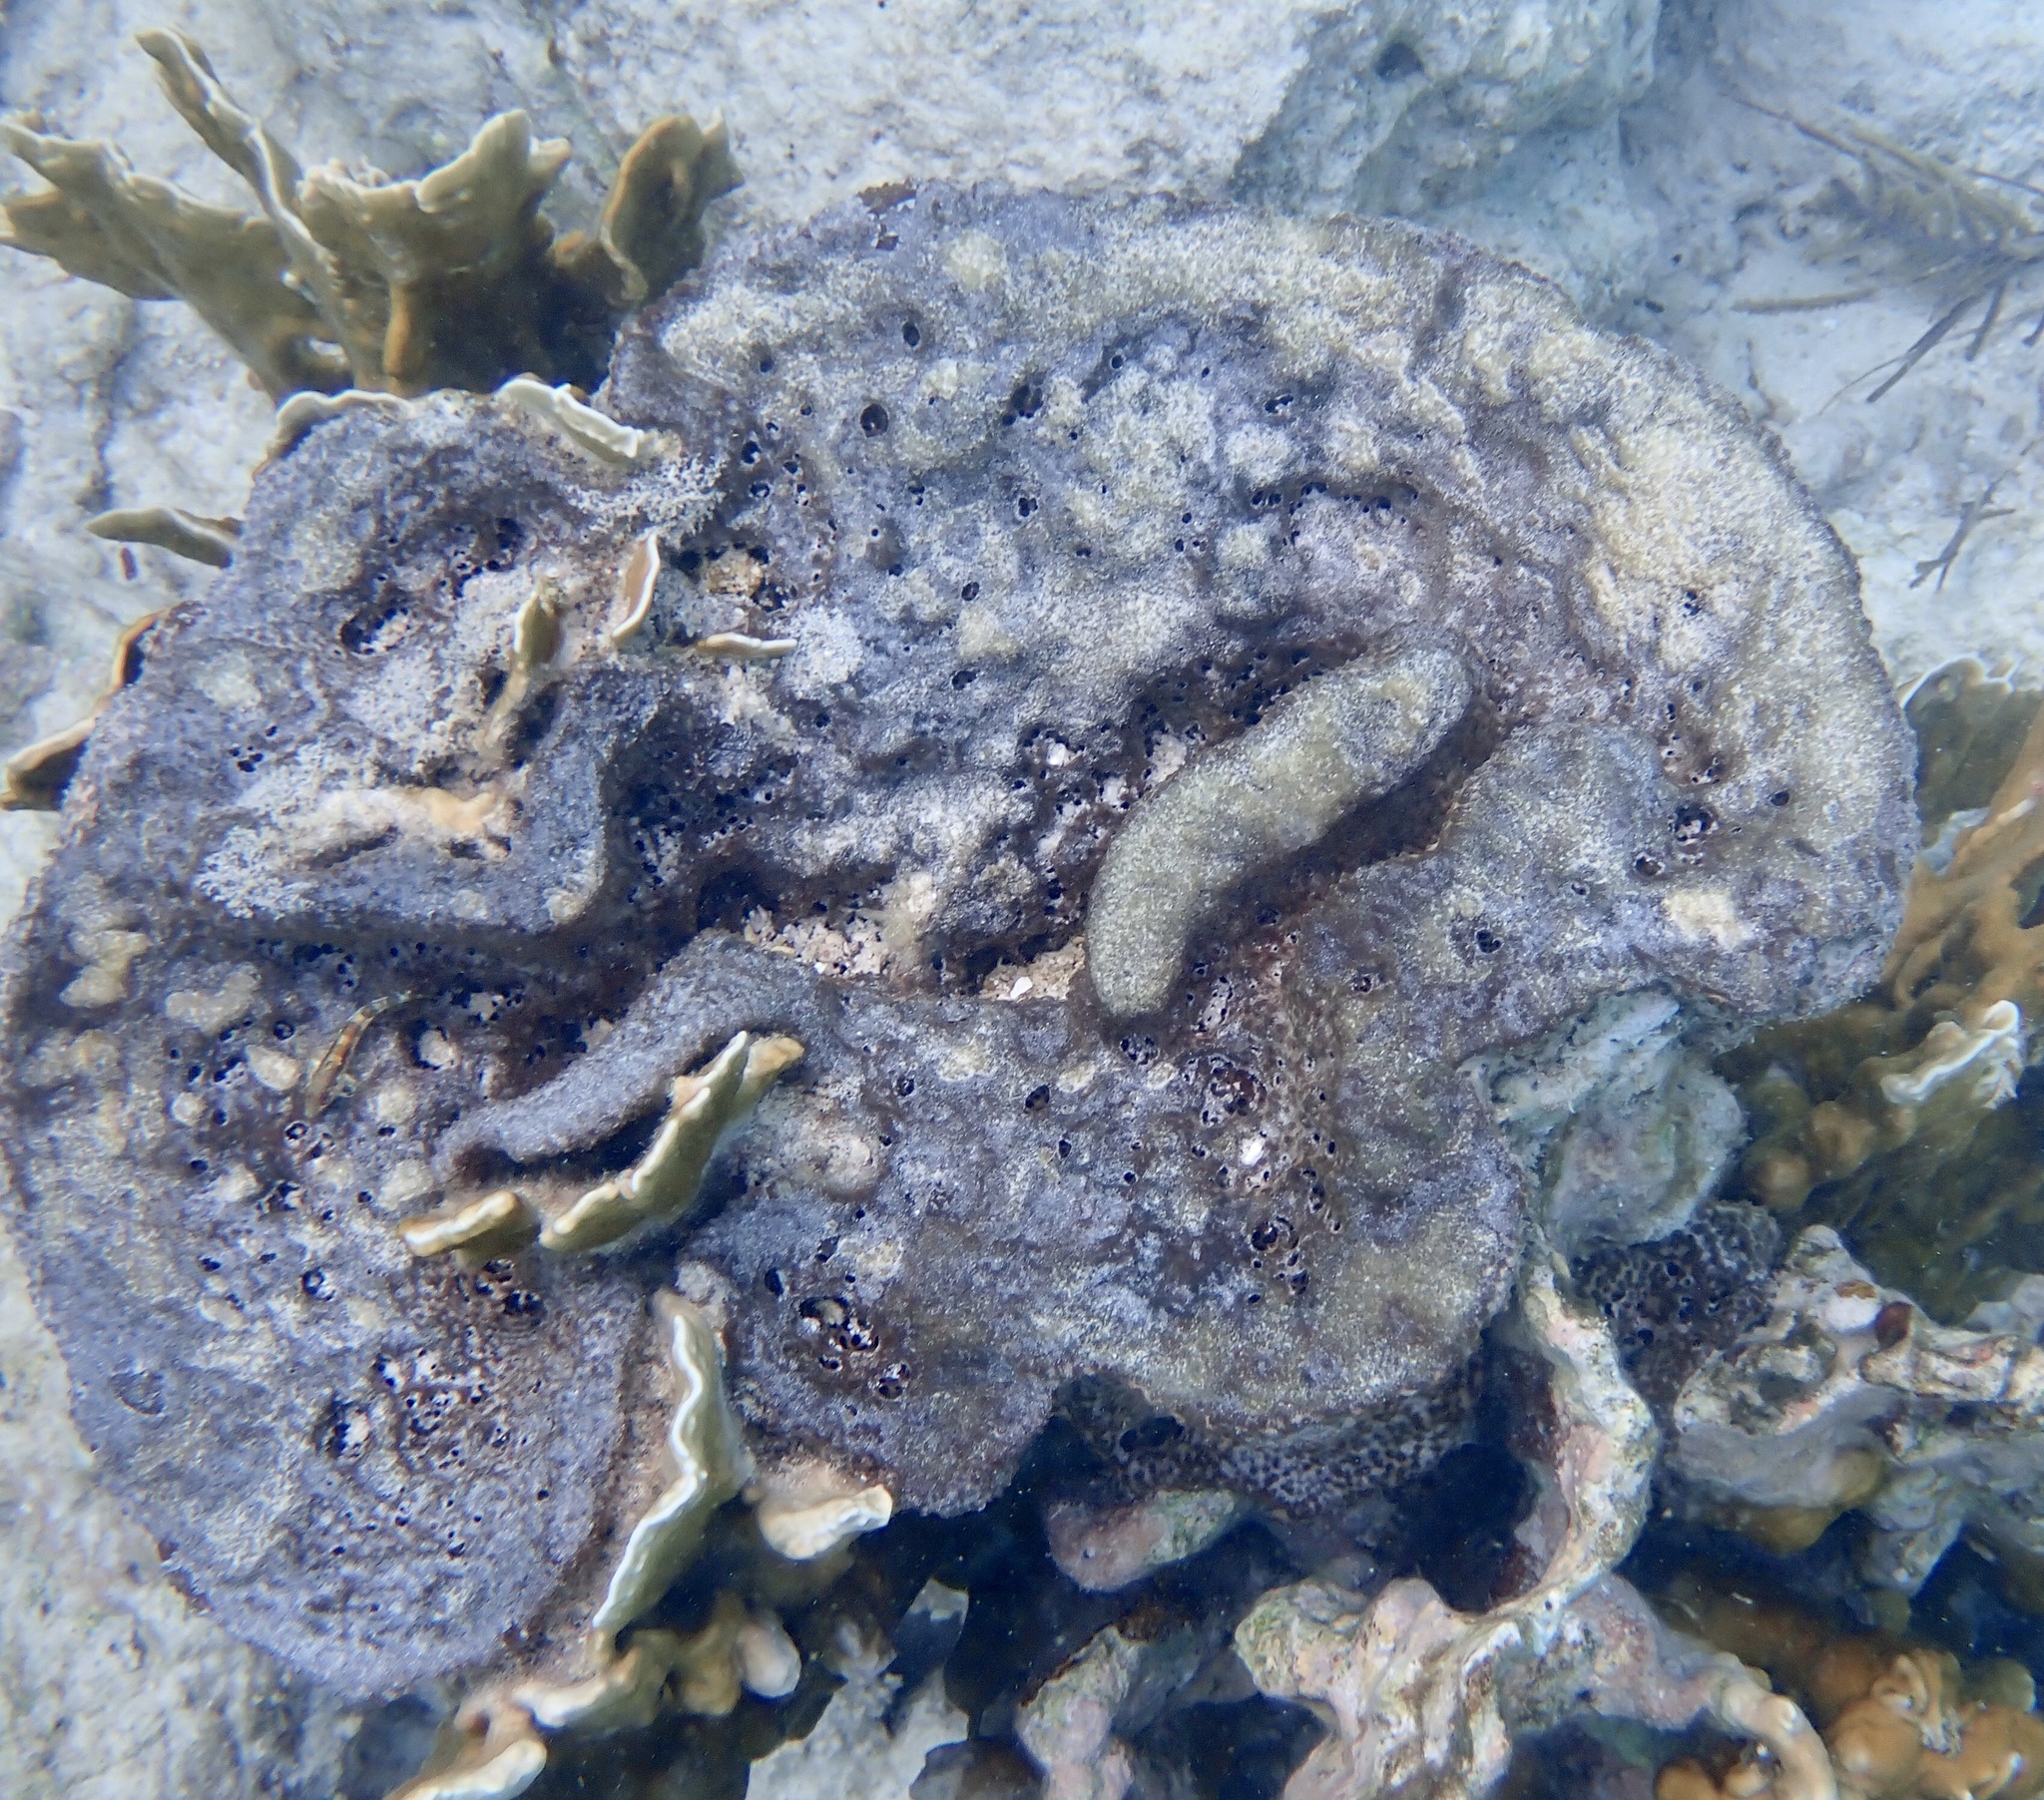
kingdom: Animalia
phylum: Porifera
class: Demospongiae
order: Dictyoceratida
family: Irciniidae
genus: Ircinia
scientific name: Ircinia campana
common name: Vase sponge
